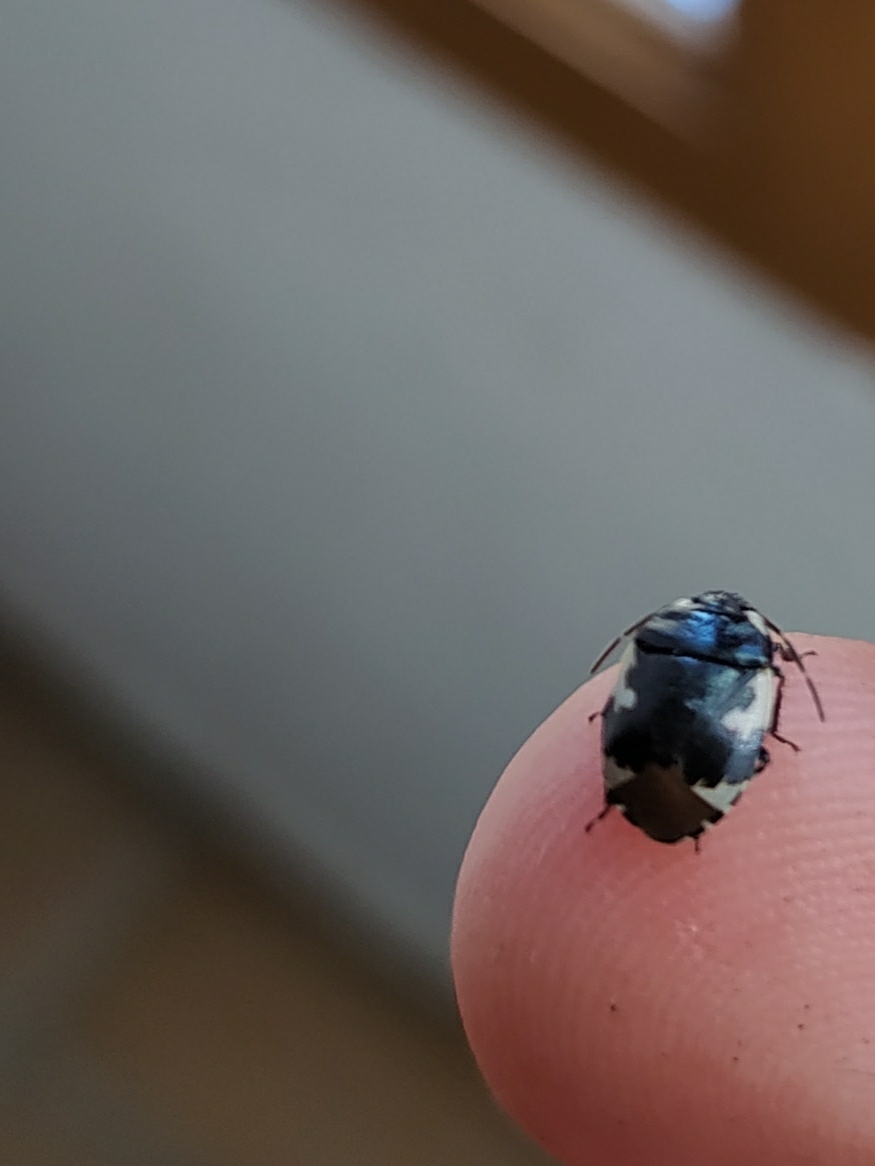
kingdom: Animalia
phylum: Arthropoda
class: Insecta
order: Hemiptera
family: Cydnidae
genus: Tritomegas
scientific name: Tritomegas bicolor
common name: Pied shieldbug
